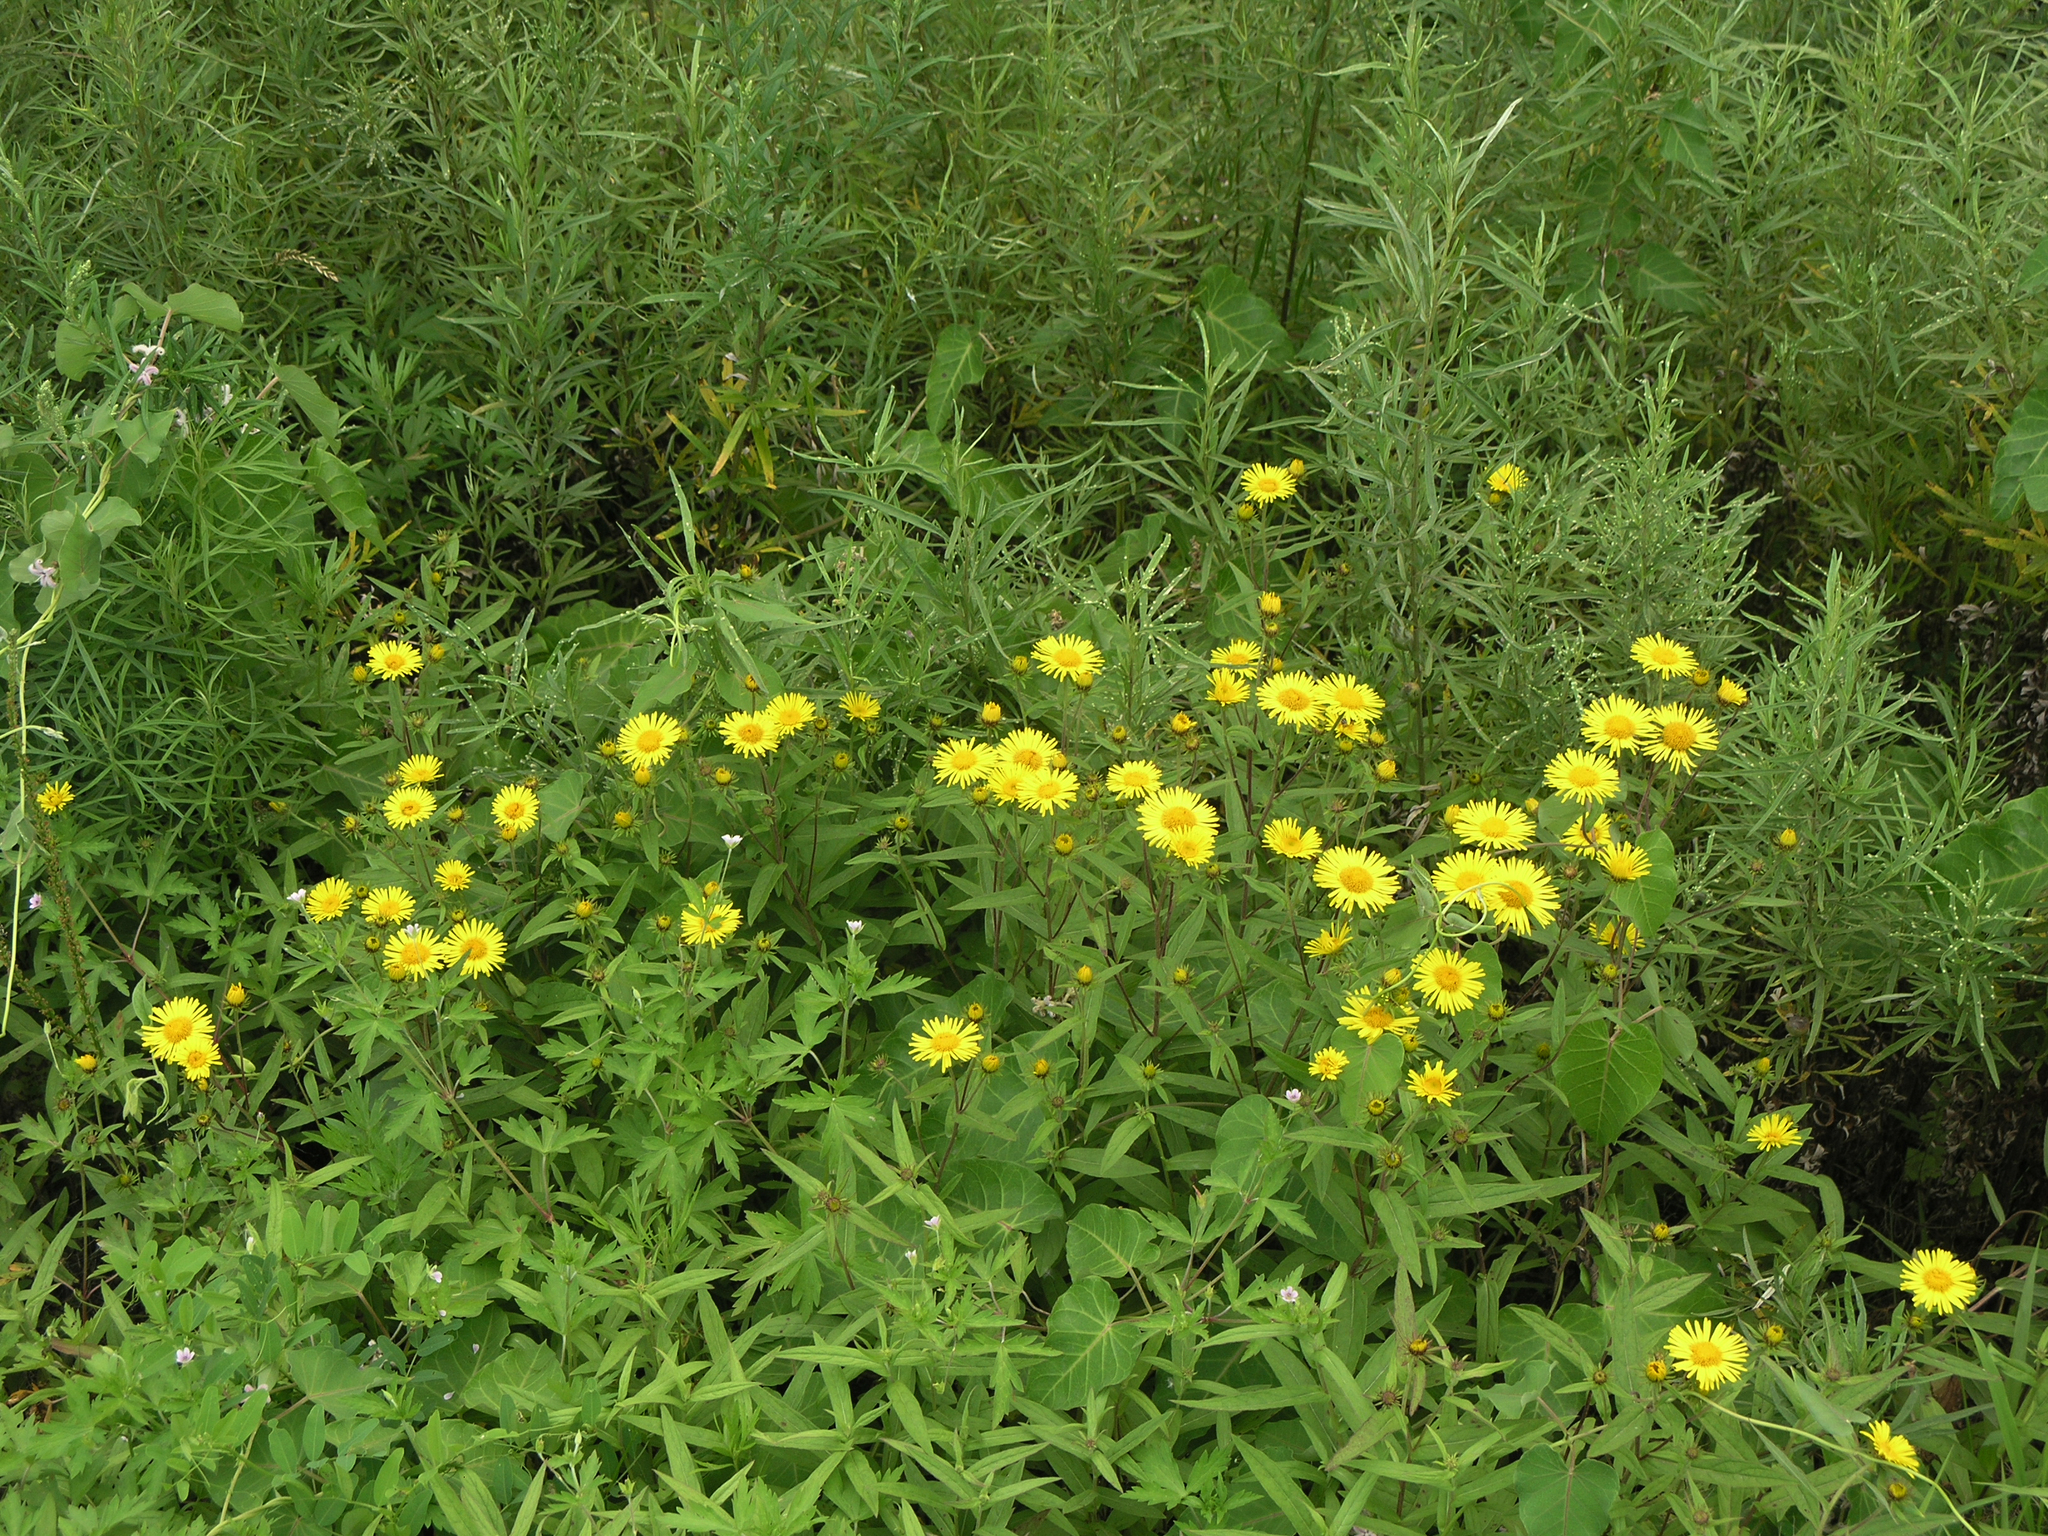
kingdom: Plantae
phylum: Tracheophyta
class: Magnoliopsida
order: Asterales
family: Asteraceae
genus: Inula
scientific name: Inula japonica
